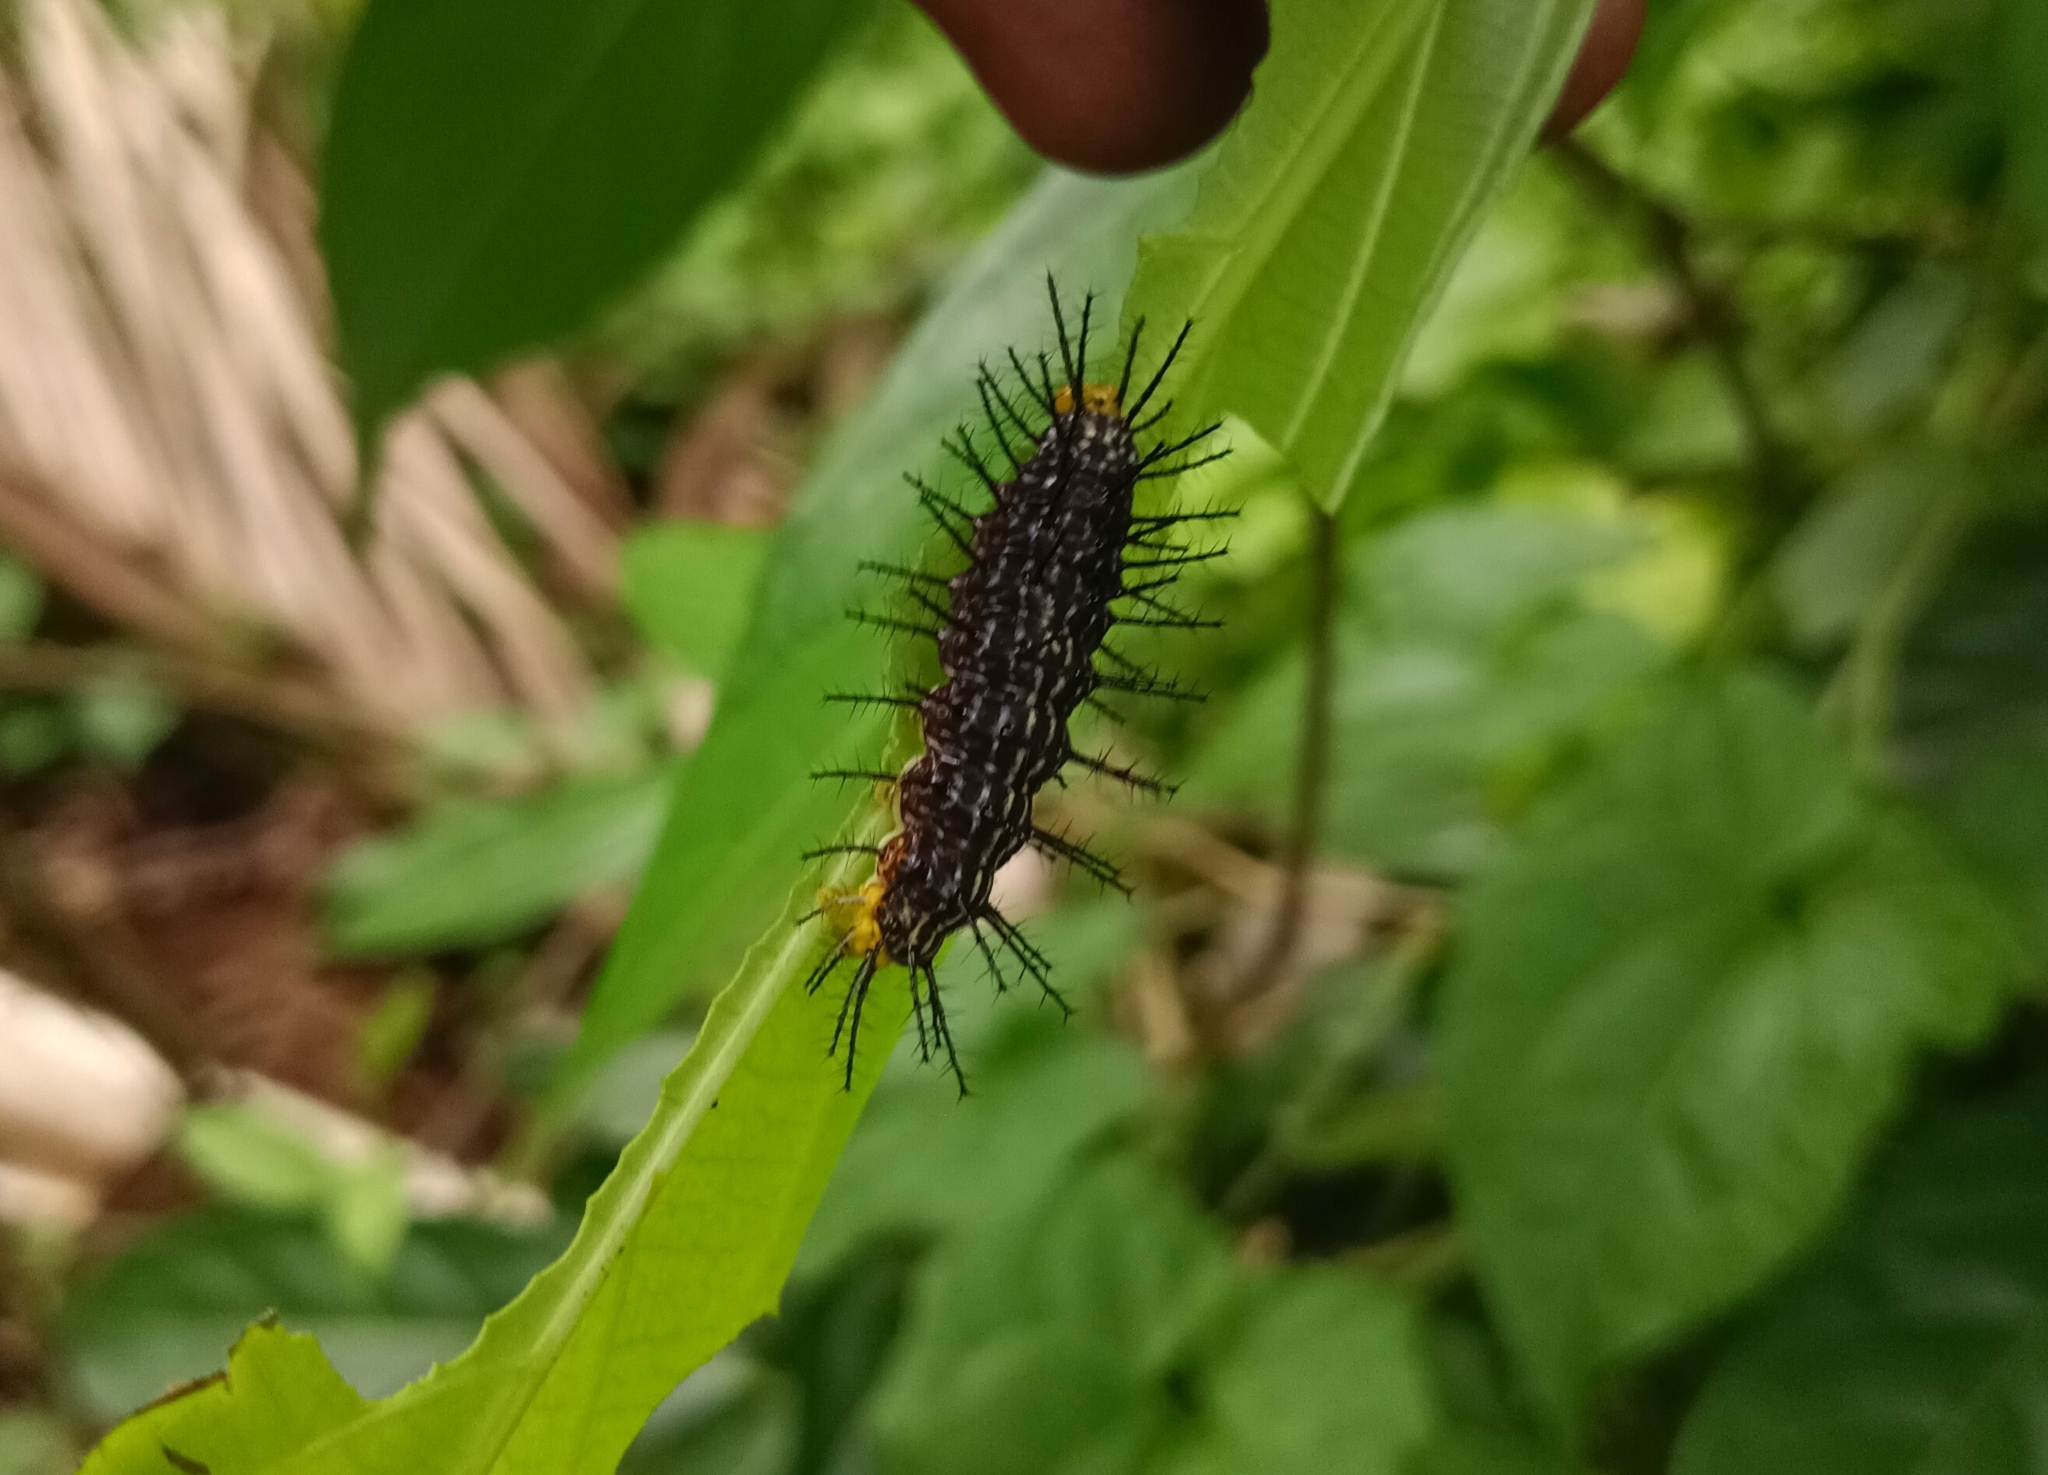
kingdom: Animalia
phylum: Arthropoda
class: Insecta
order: Lepidoptera
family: Nymphalidae
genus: Cirrochroa
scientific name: Cirrochroa thais
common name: Tamil yeoman
